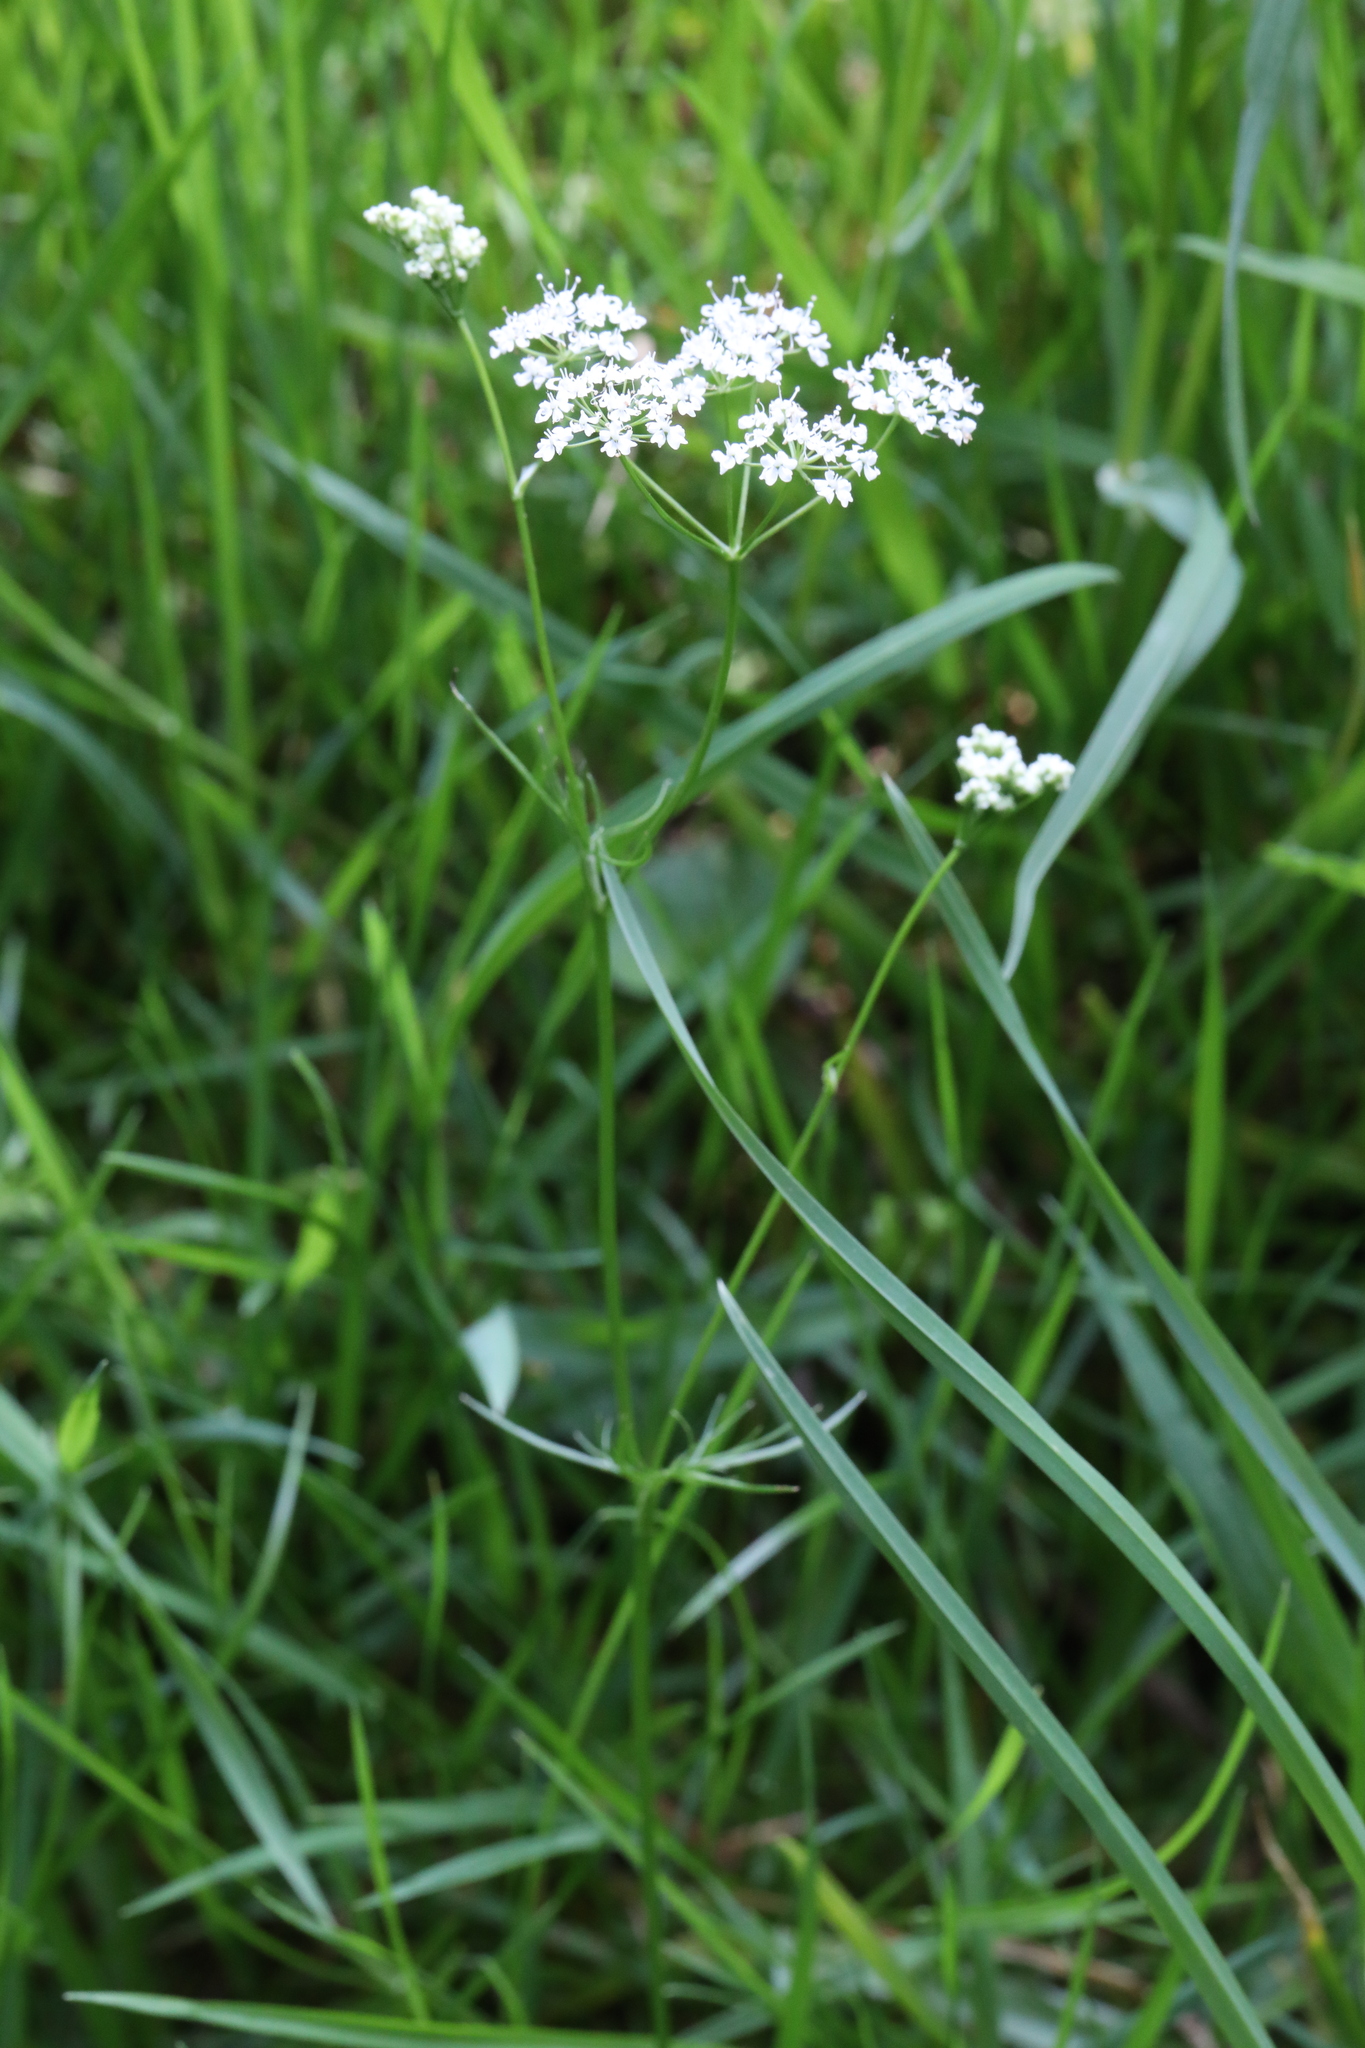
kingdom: Plantae
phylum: Tracheophyta
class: Magnoliopsida
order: Apiales
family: Apiaceae
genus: Conopodium
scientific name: Conopodium majus
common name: Pignut
